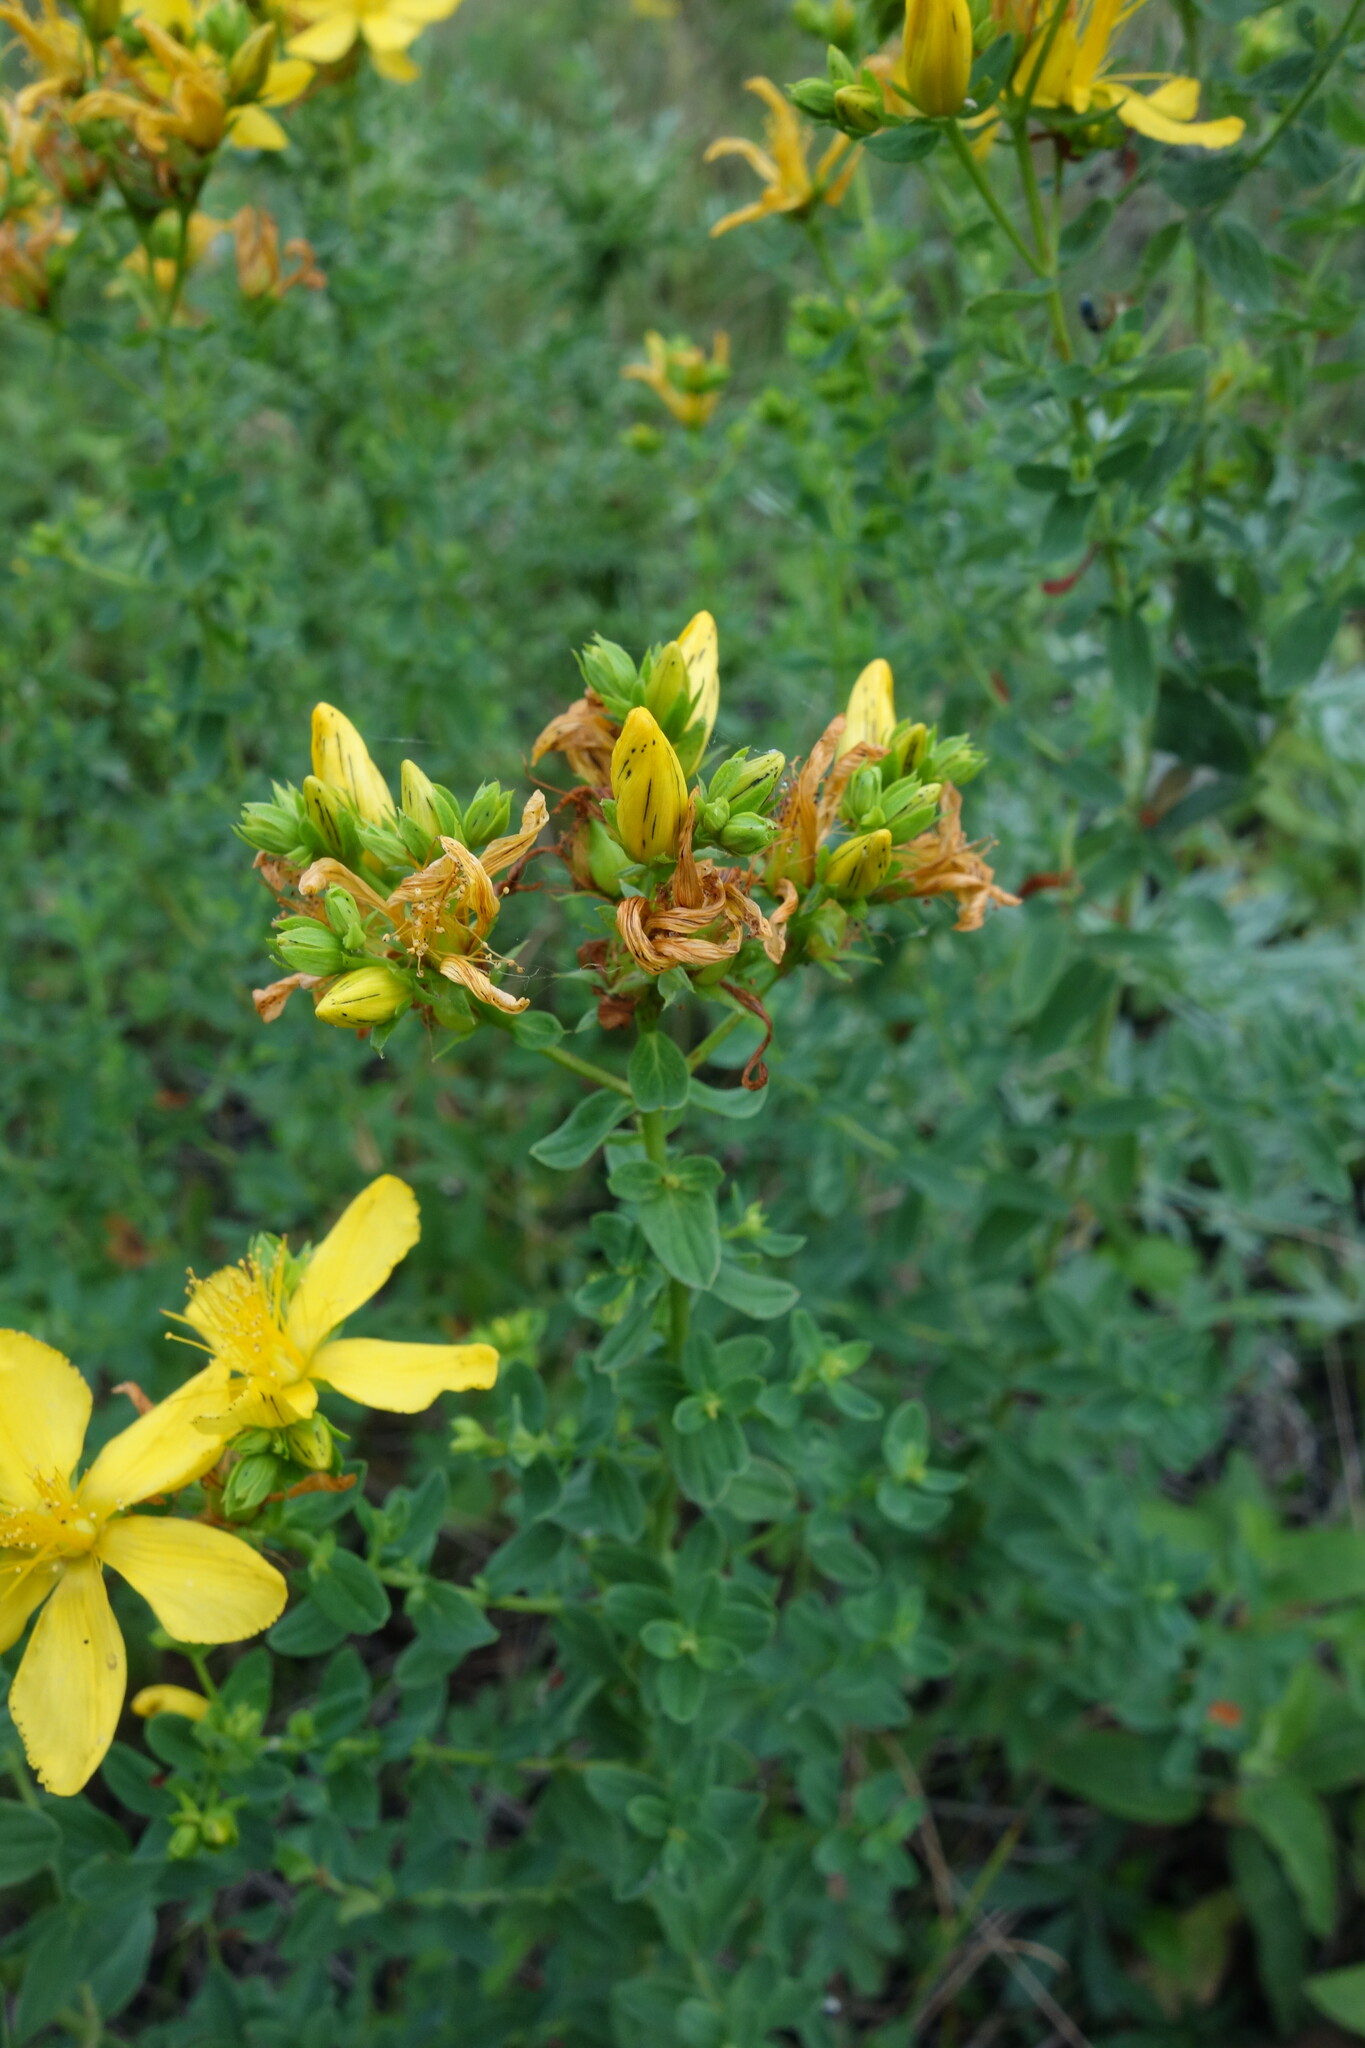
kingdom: Plantae
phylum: Tracheophyta
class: Magnoliopsida
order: Malpighiales
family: Hypericaceae
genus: Hypericum
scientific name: Hypericum perforatum
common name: Common st. johnswort
